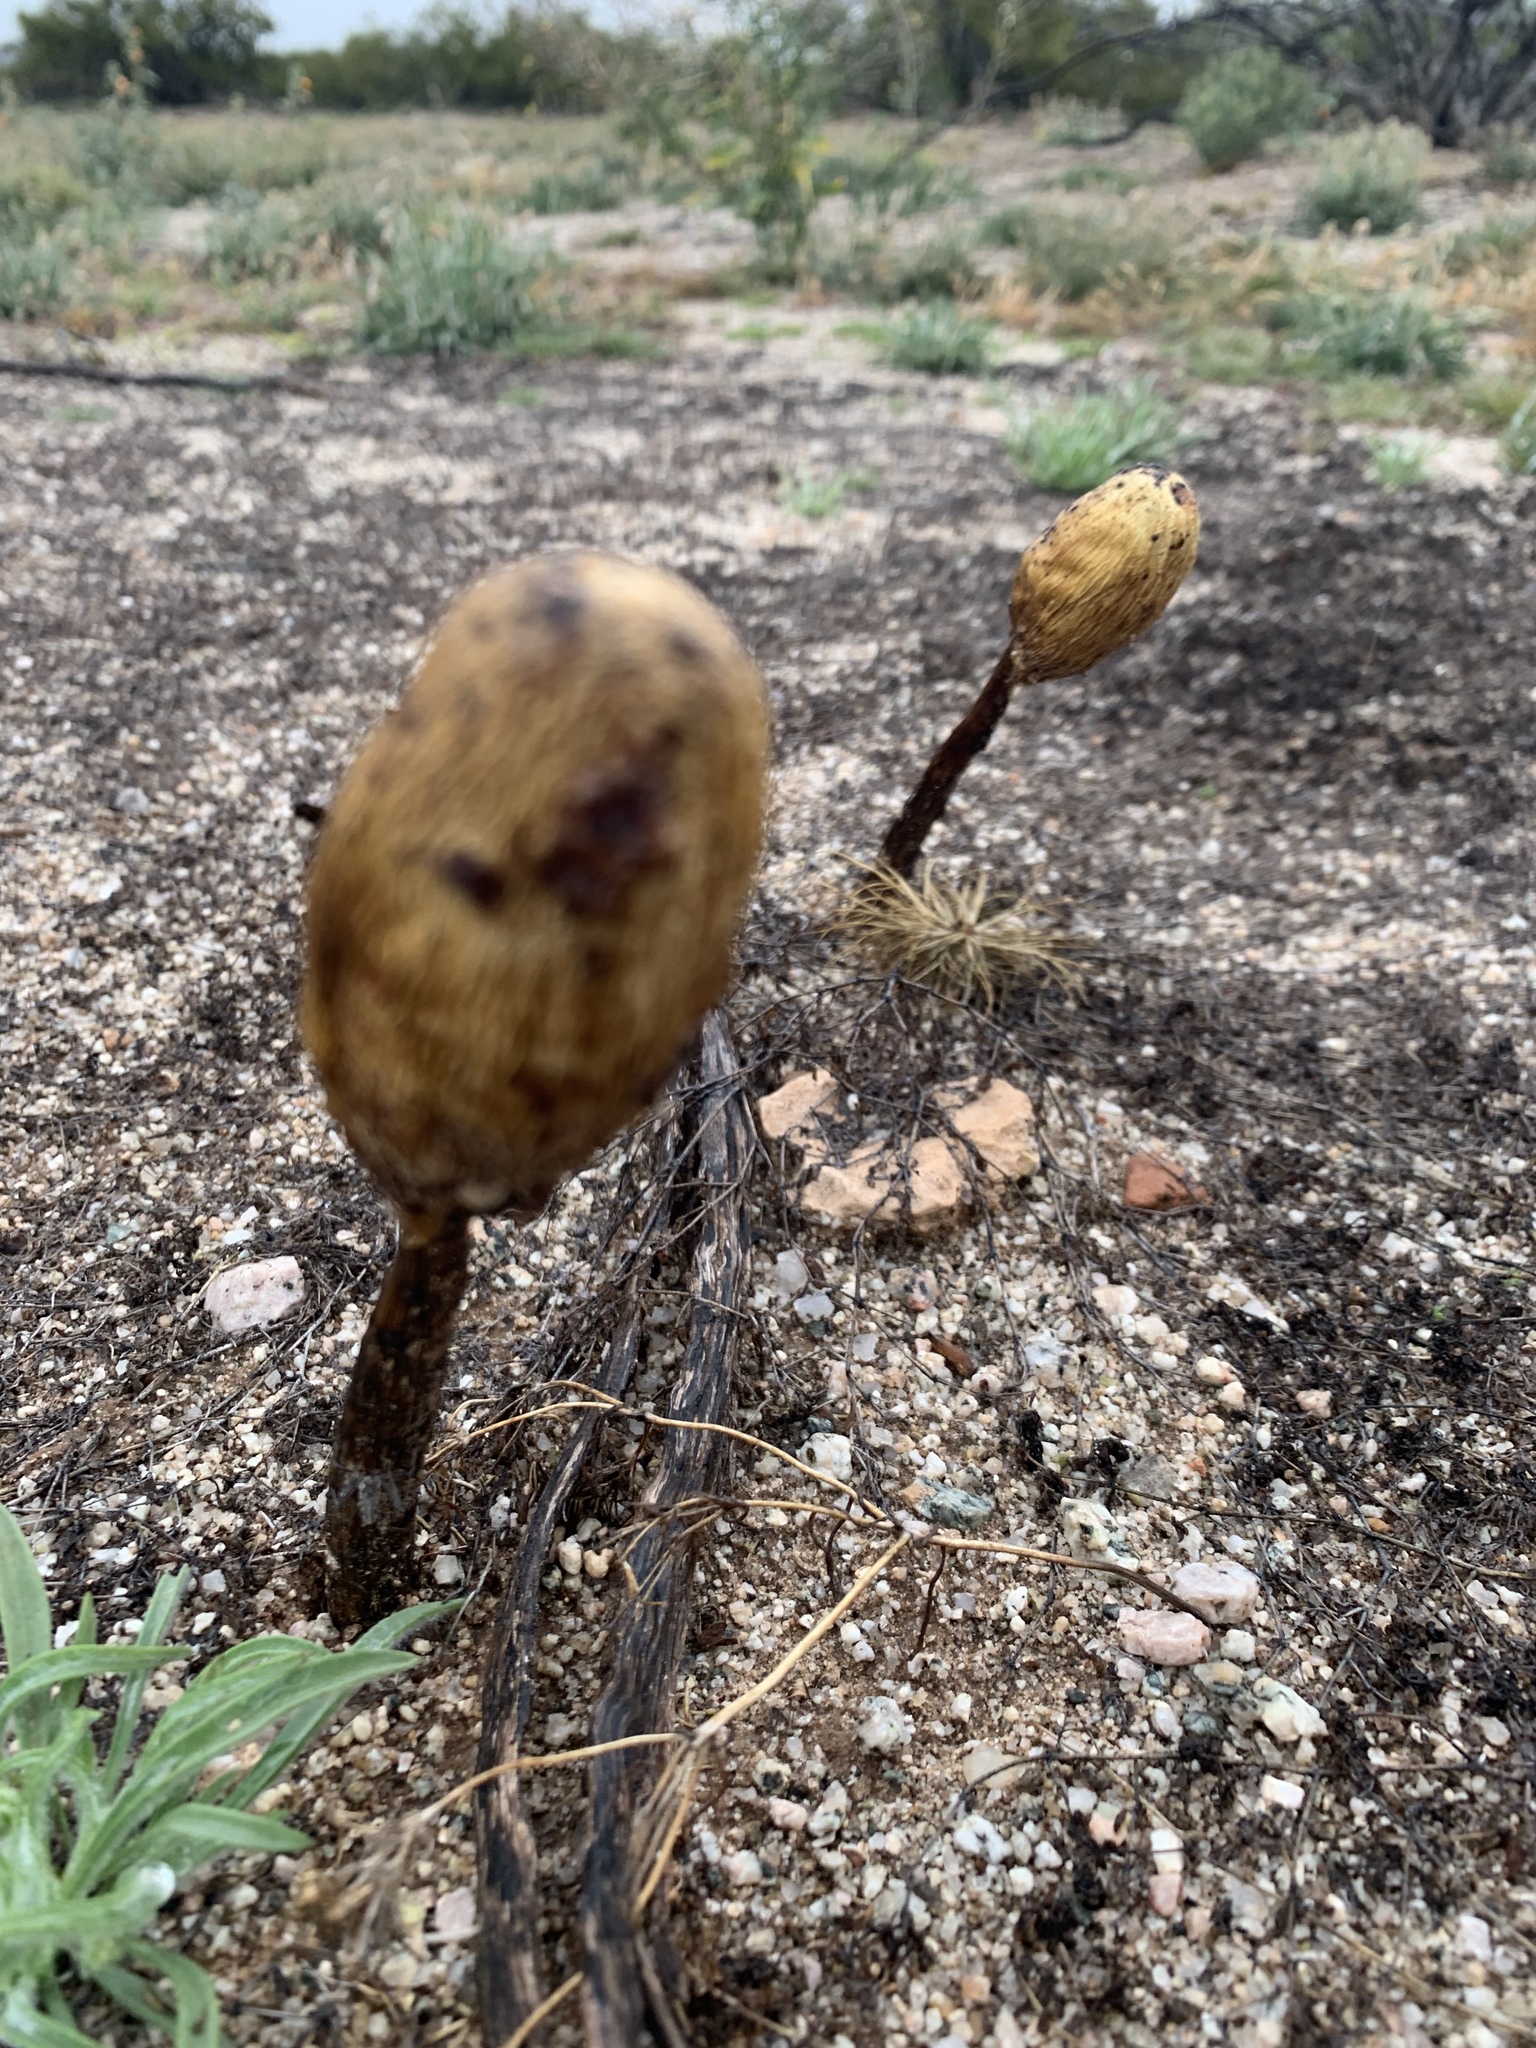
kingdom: Fungi
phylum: Basidiomycota
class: Agaricomycetes
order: Agaricales
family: Agaricaceae
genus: Podaxis
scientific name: Podaxis pistillaris
